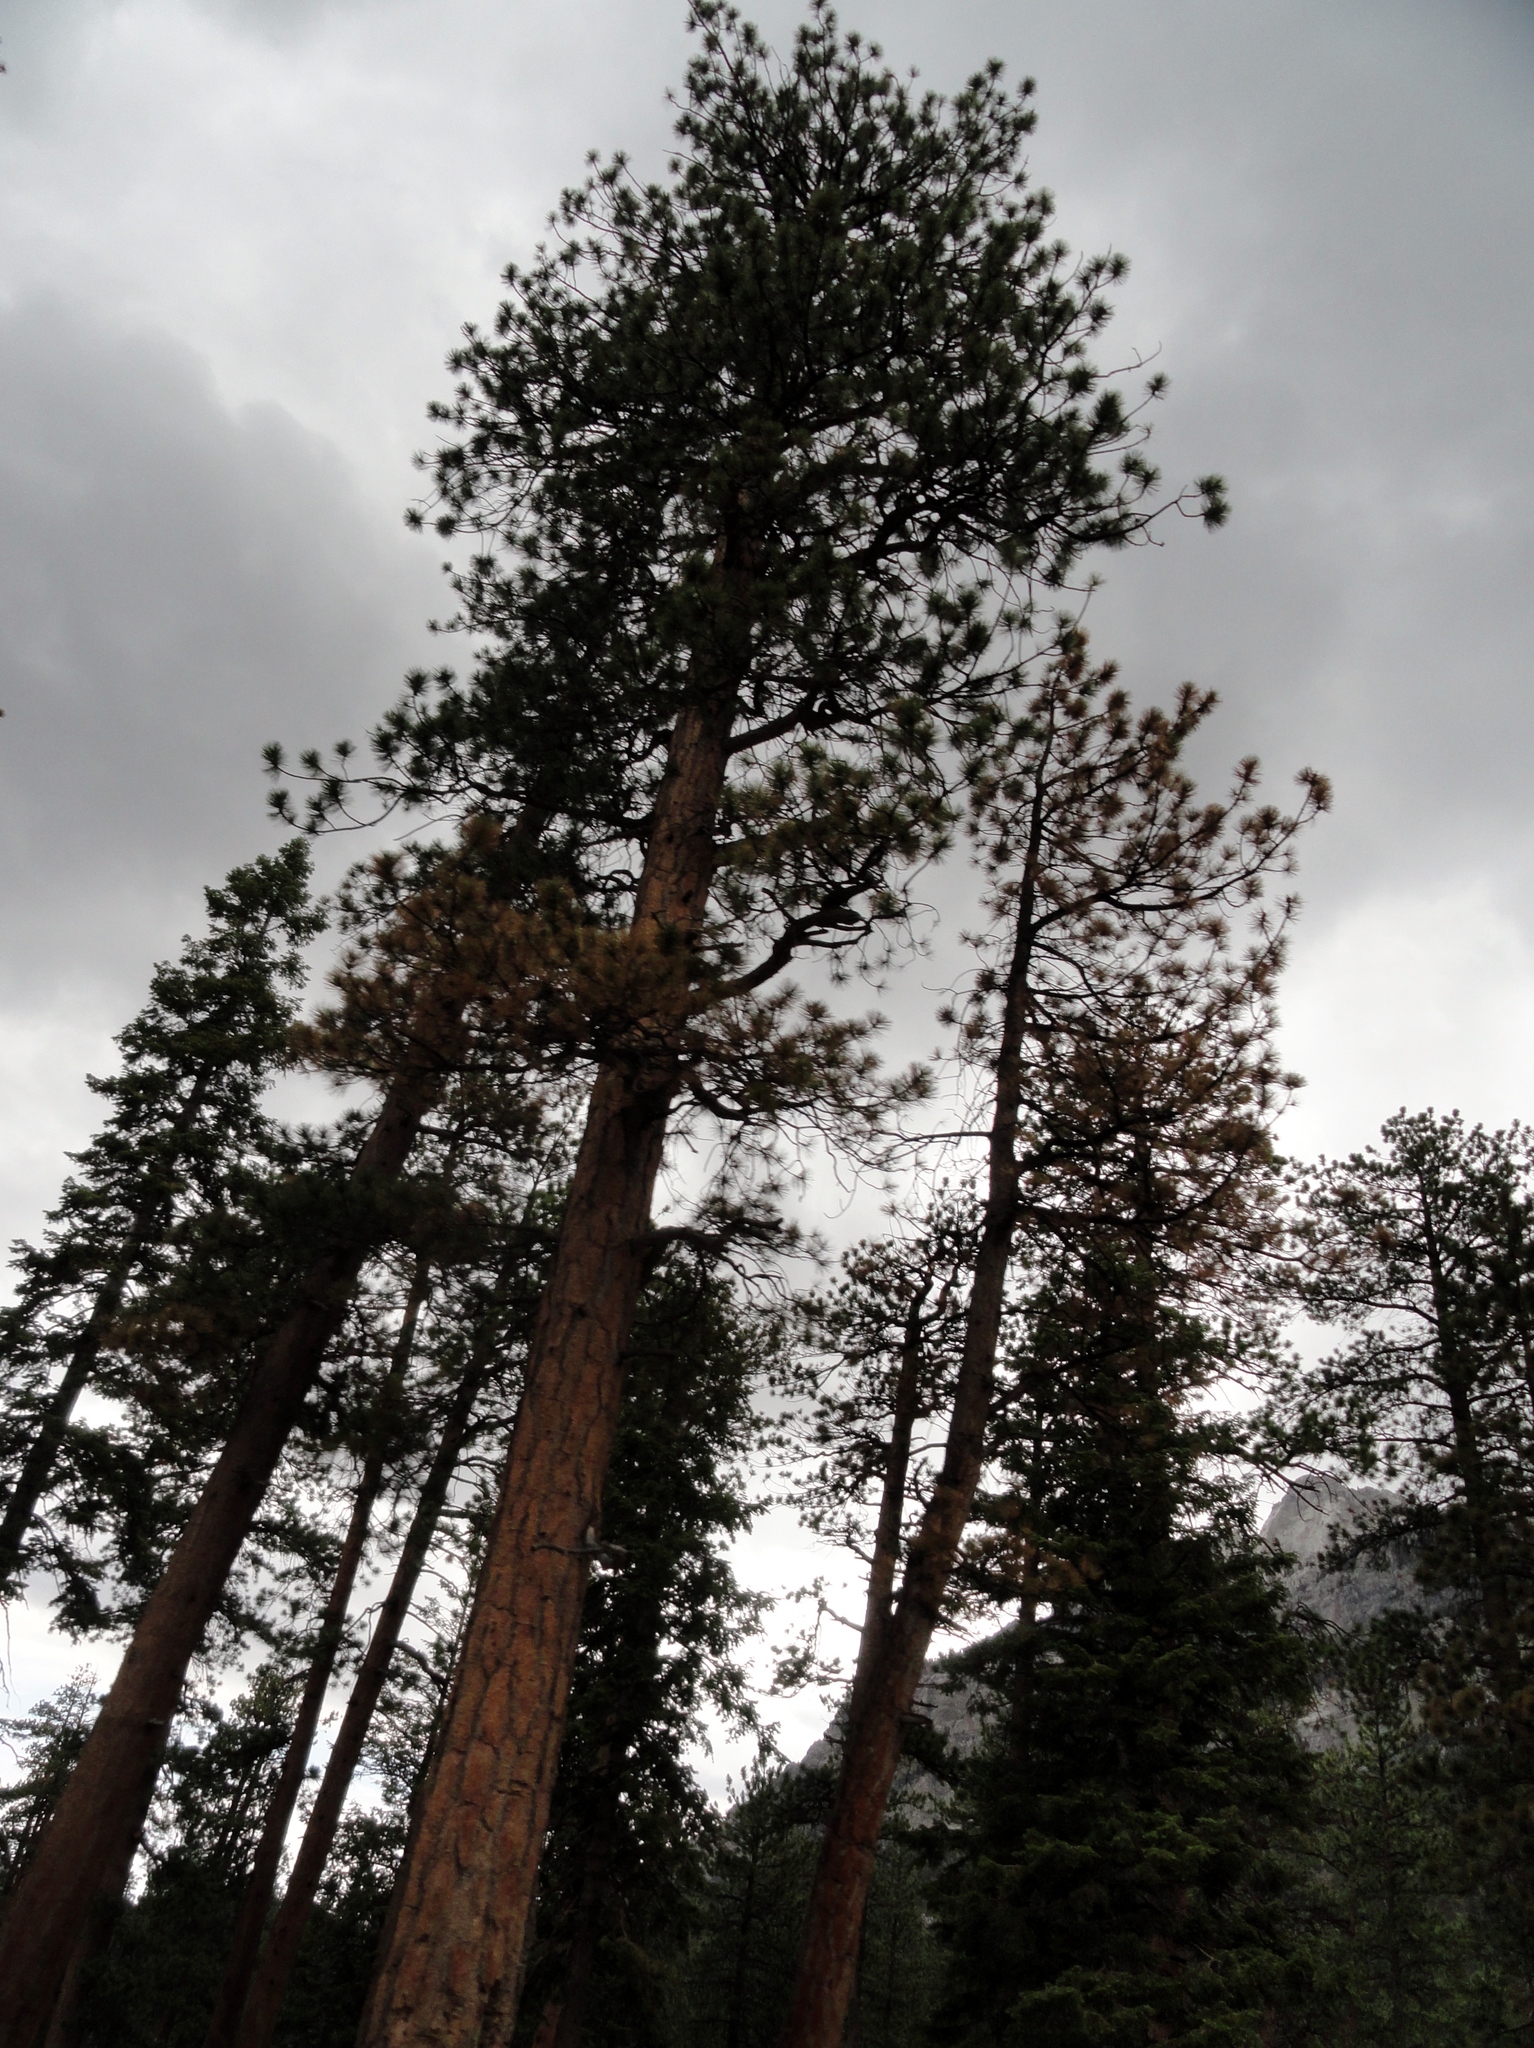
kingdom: Plantae
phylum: Tracheophyta
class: Pinopsida
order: Pinales
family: Pinaceae
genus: Pinus
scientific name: Pinus ponderosa
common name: Western yellow-pine
